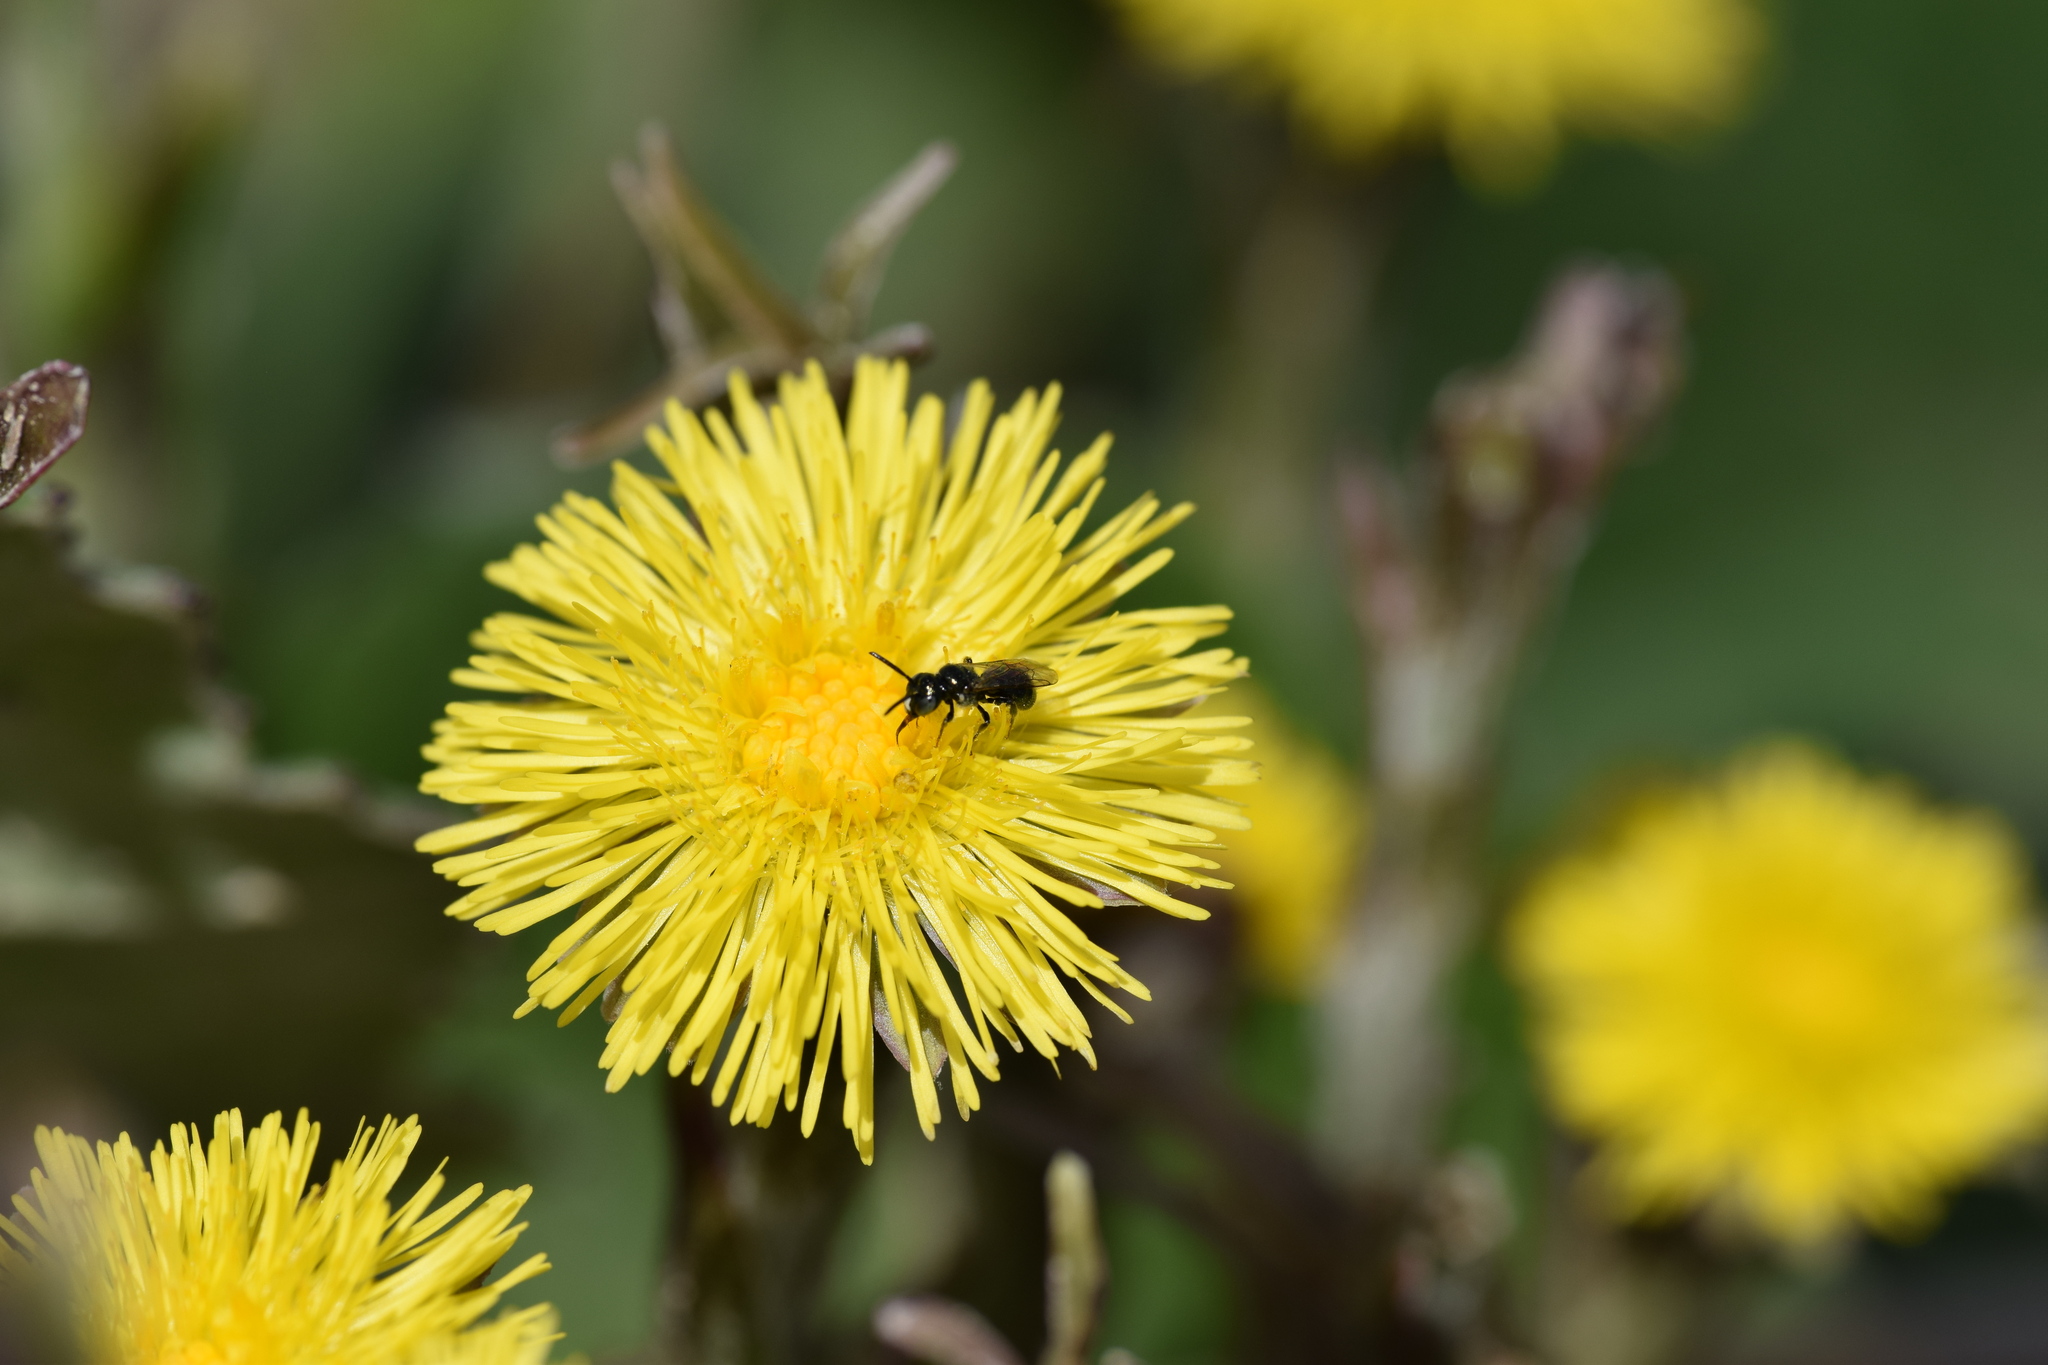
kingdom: Plantae
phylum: Tracheophyta
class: Magnoliopsida
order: Asterales
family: Asteraceae
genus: Tussilago
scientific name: Tussilago farfara
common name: Coltsfoot
